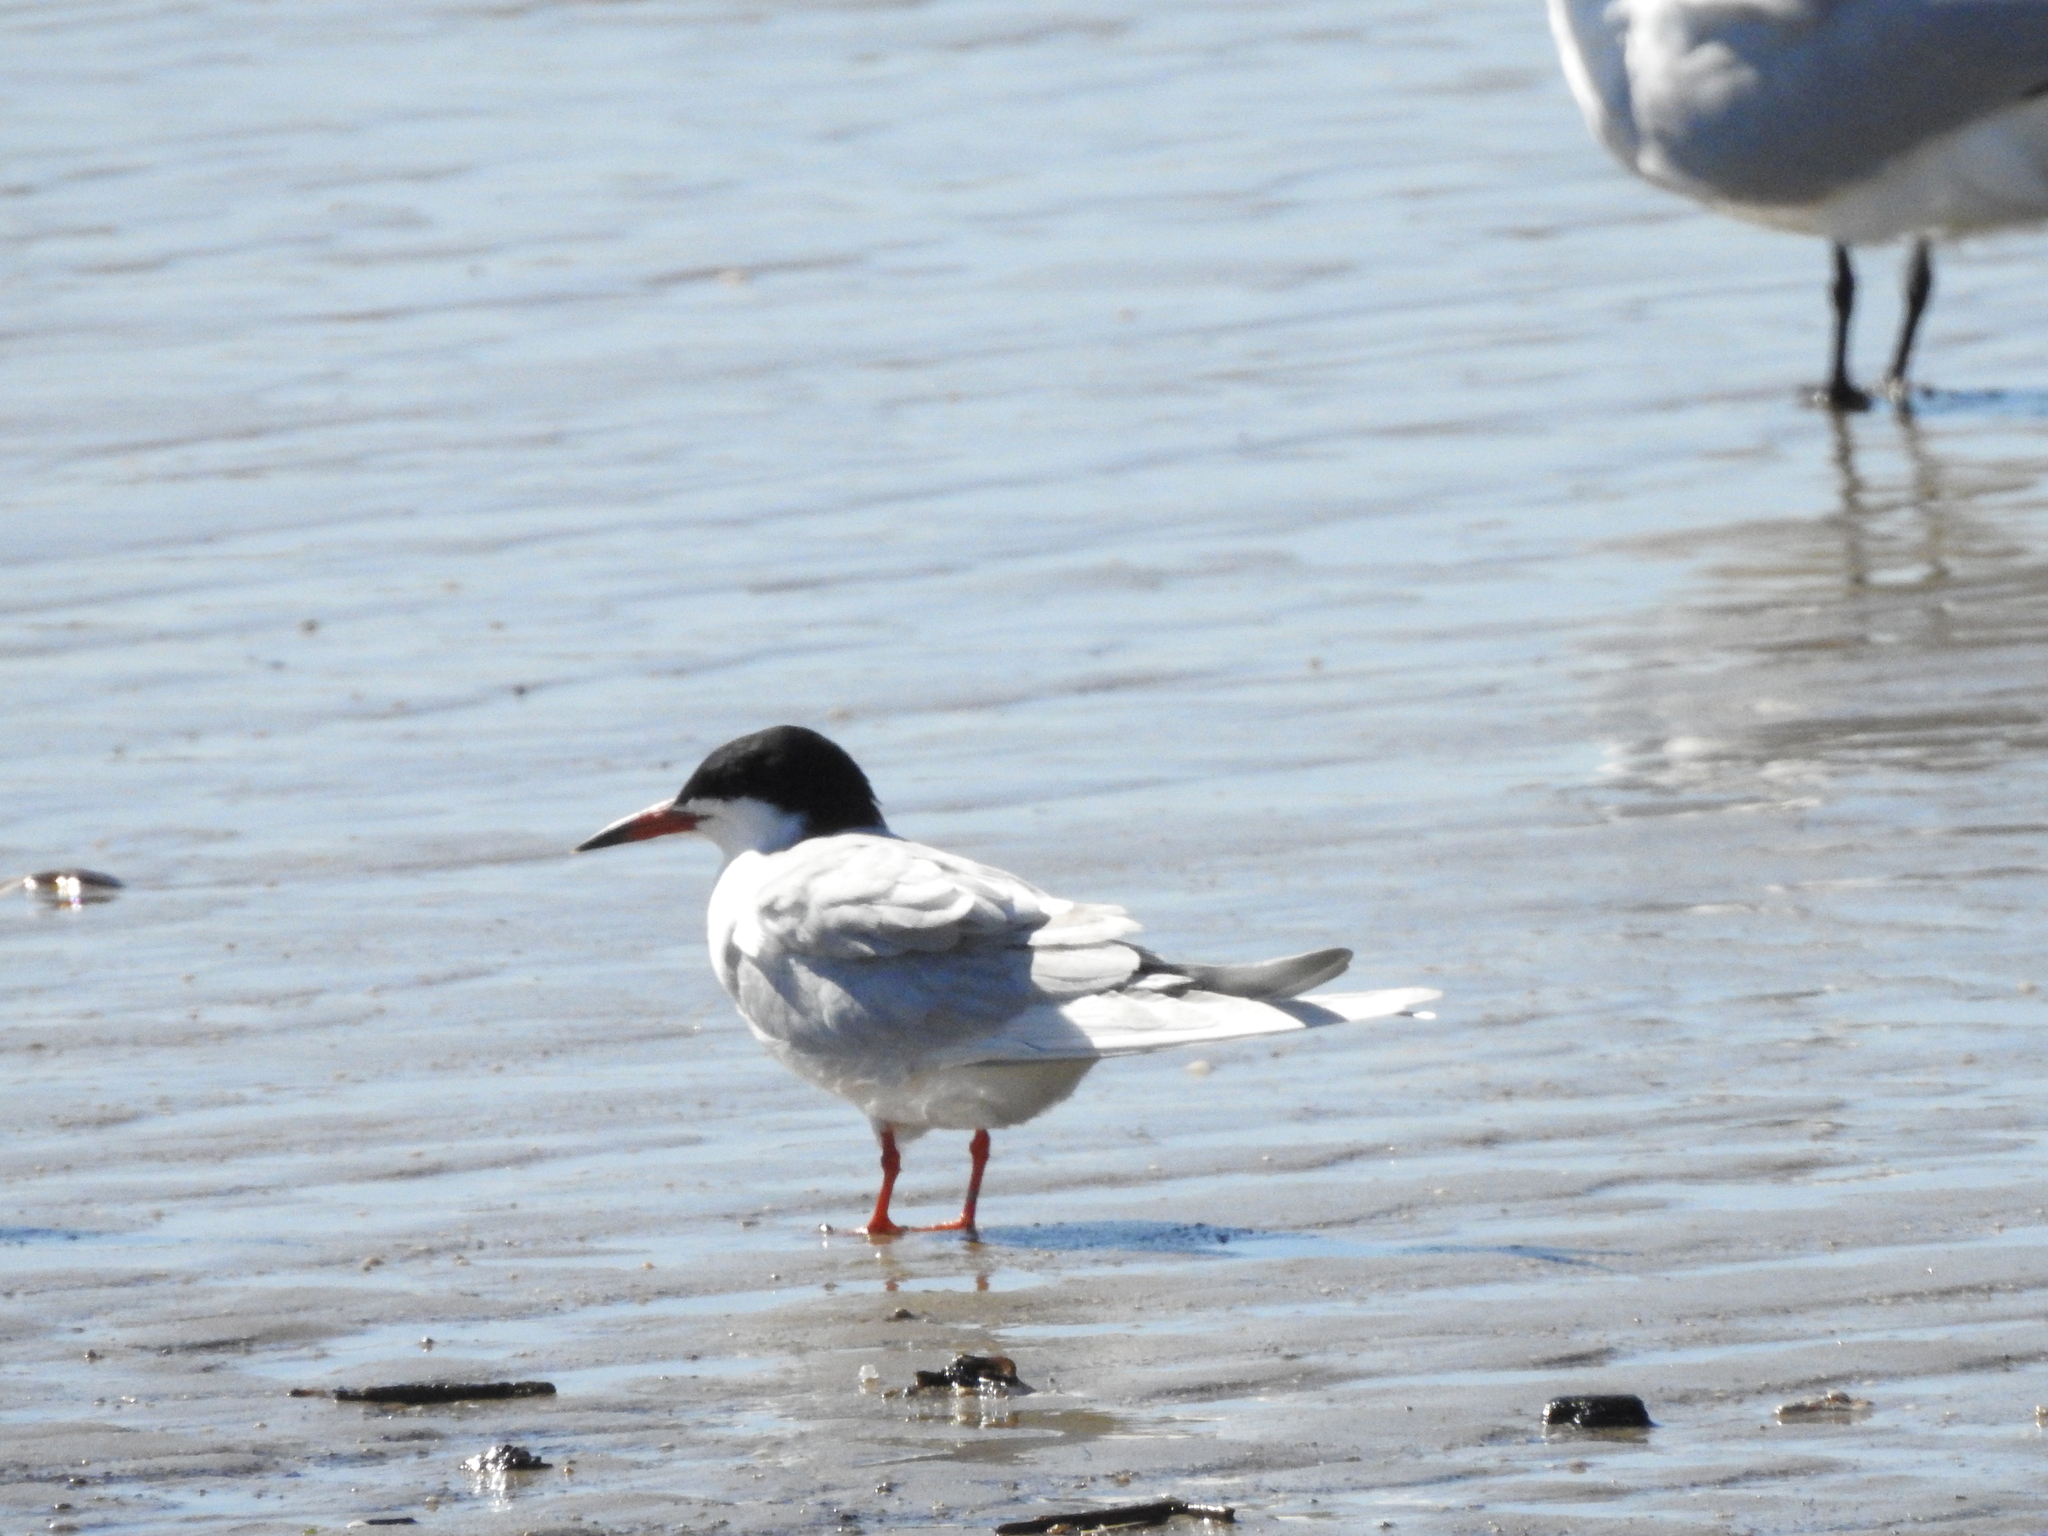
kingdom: Animalia
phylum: Chordata
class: Aves
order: Charadriiformes
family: Laridae
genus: Sterna
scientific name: Sterna forsteri
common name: Forster's tern
